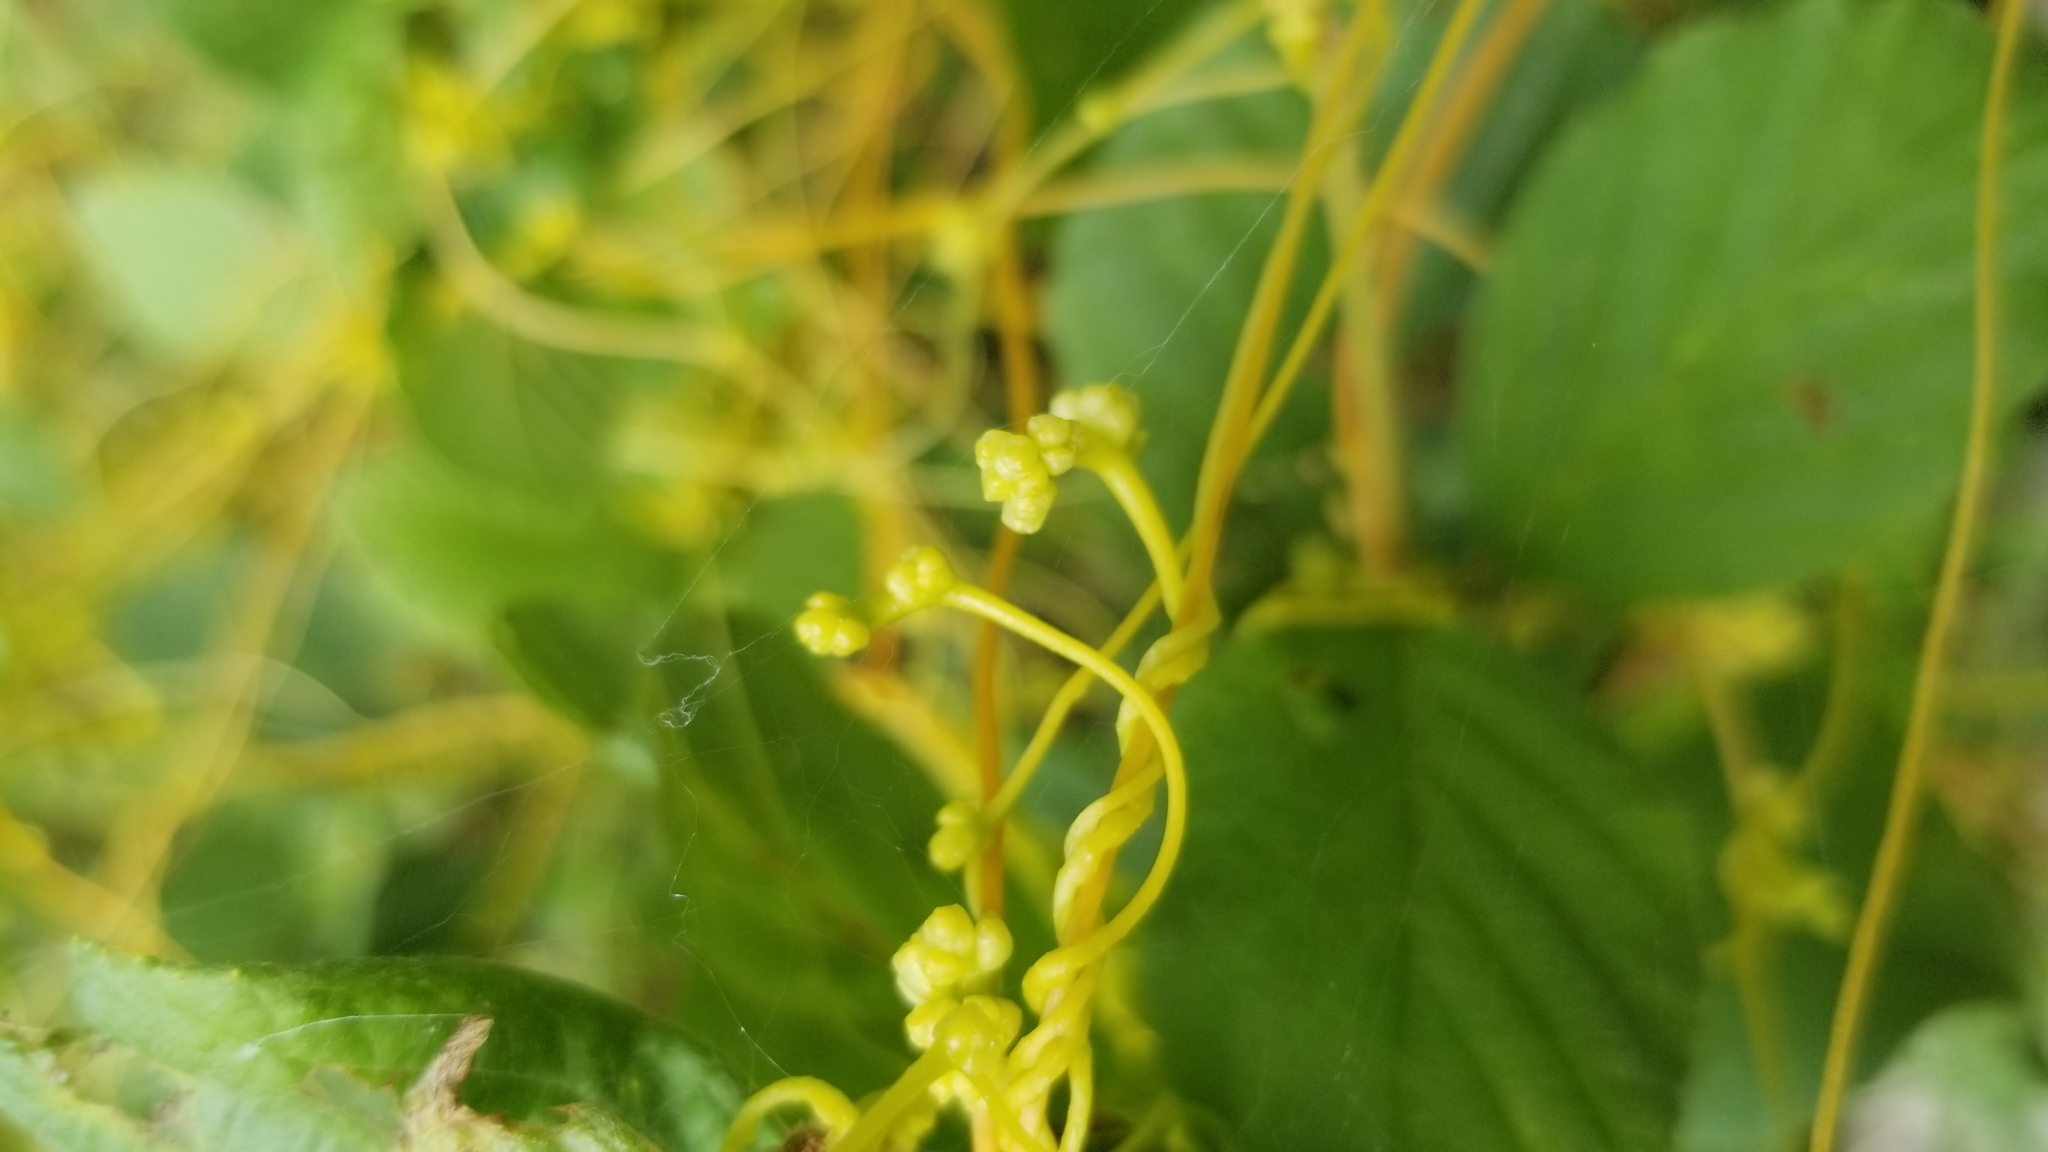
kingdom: Plantae
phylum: Tracheophyta
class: Magnoliopsida
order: Solanales
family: Convolvulaceae
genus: Cuscuta
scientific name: Cuscuta gronovii
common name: Common dodder
